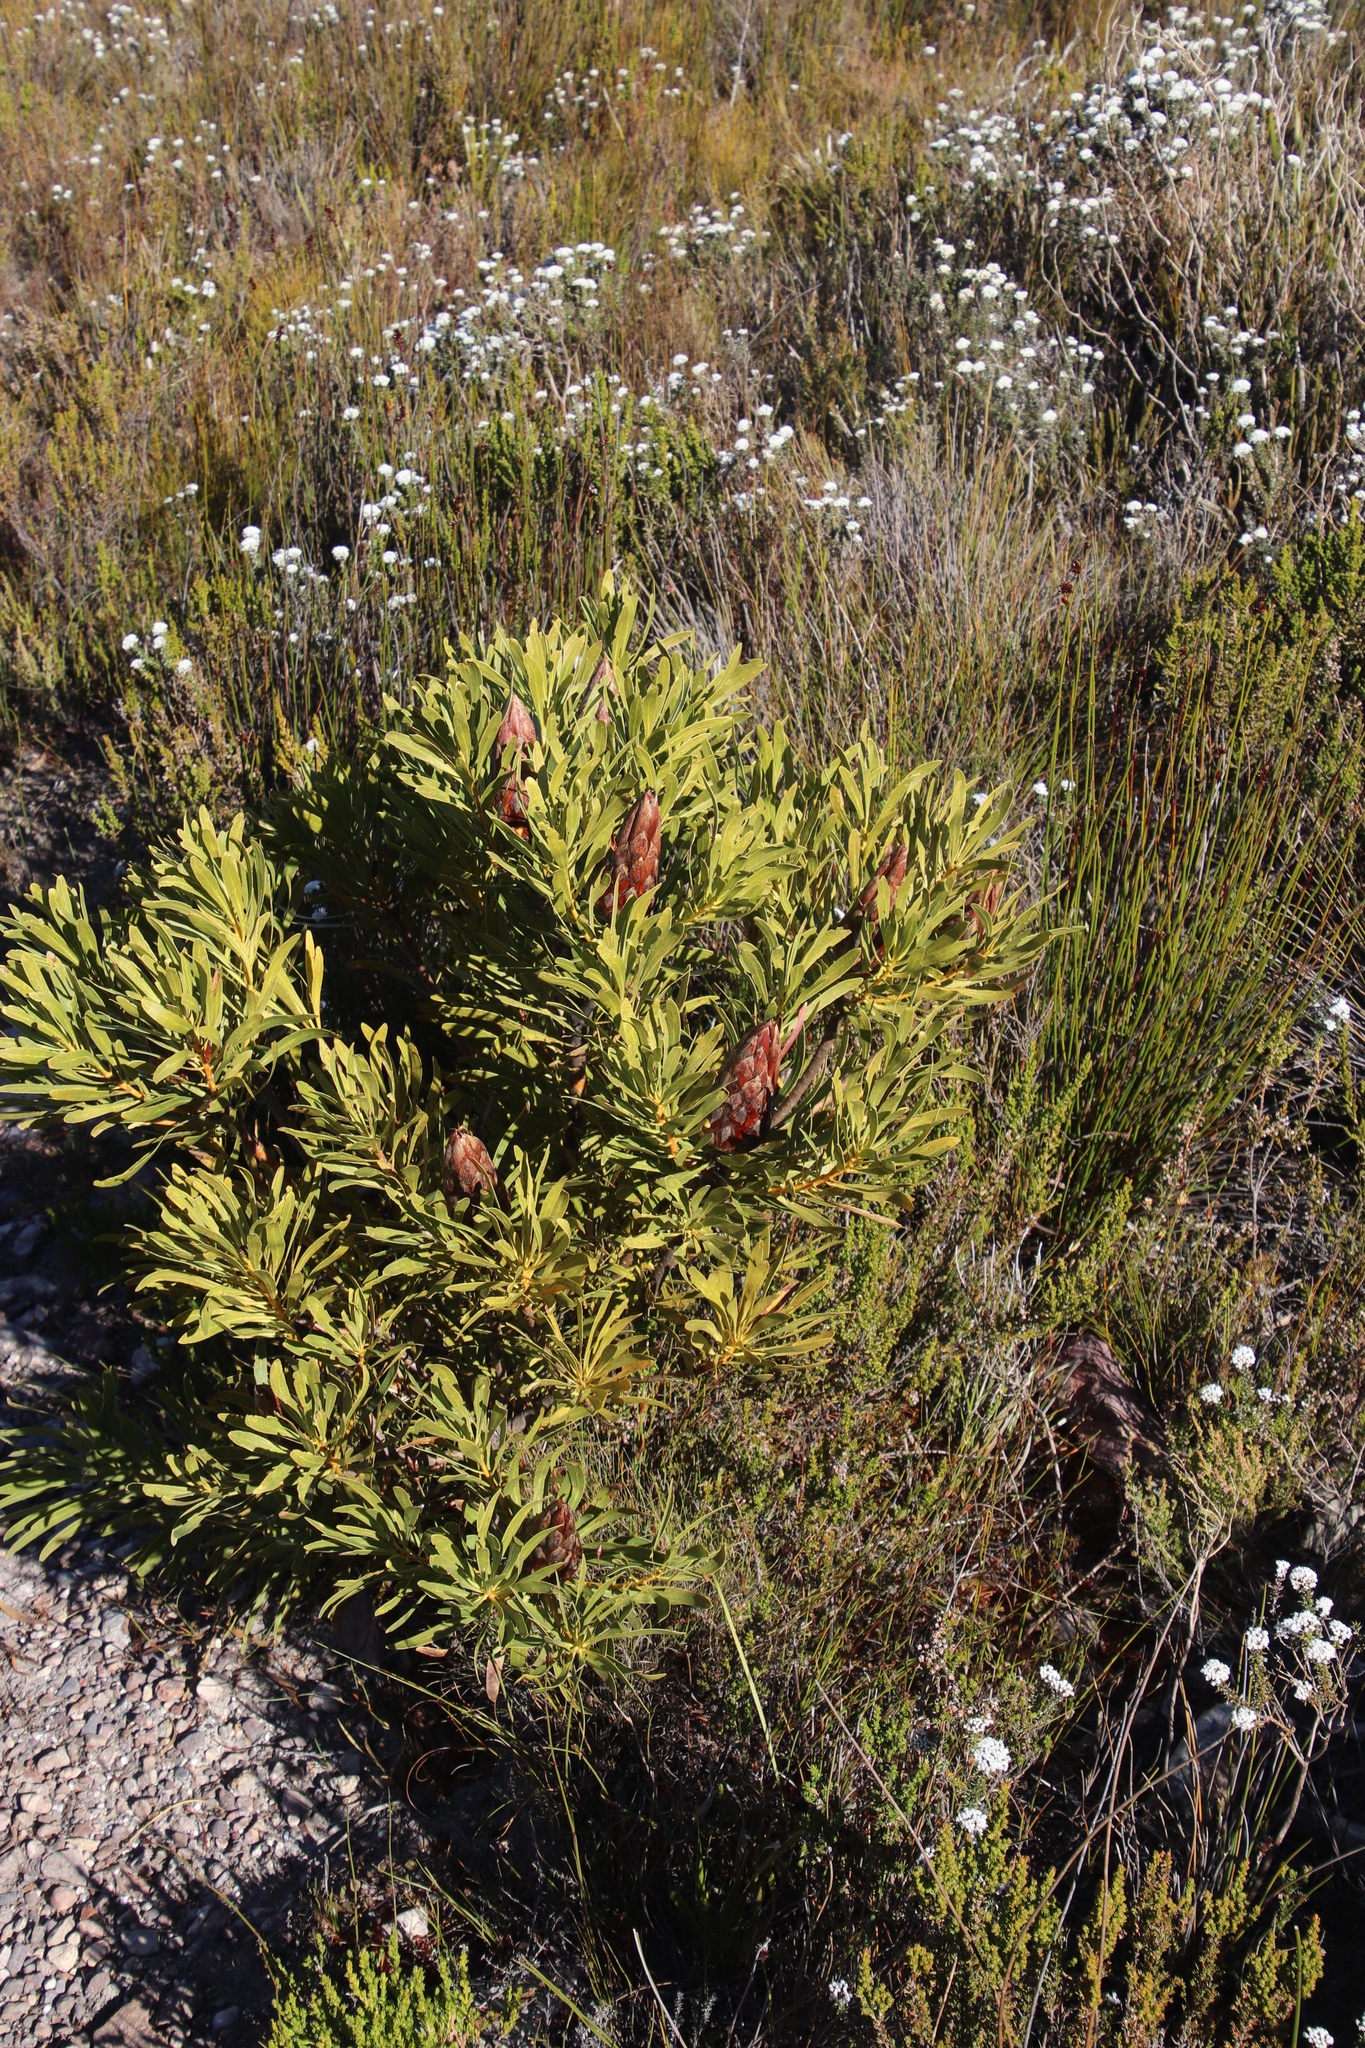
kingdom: Plantae
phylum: Tracheophyta
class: Magnoliopsida
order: Proteales
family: Proteaceae
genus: Protea
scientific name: Protea repens
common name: Sugarbush
